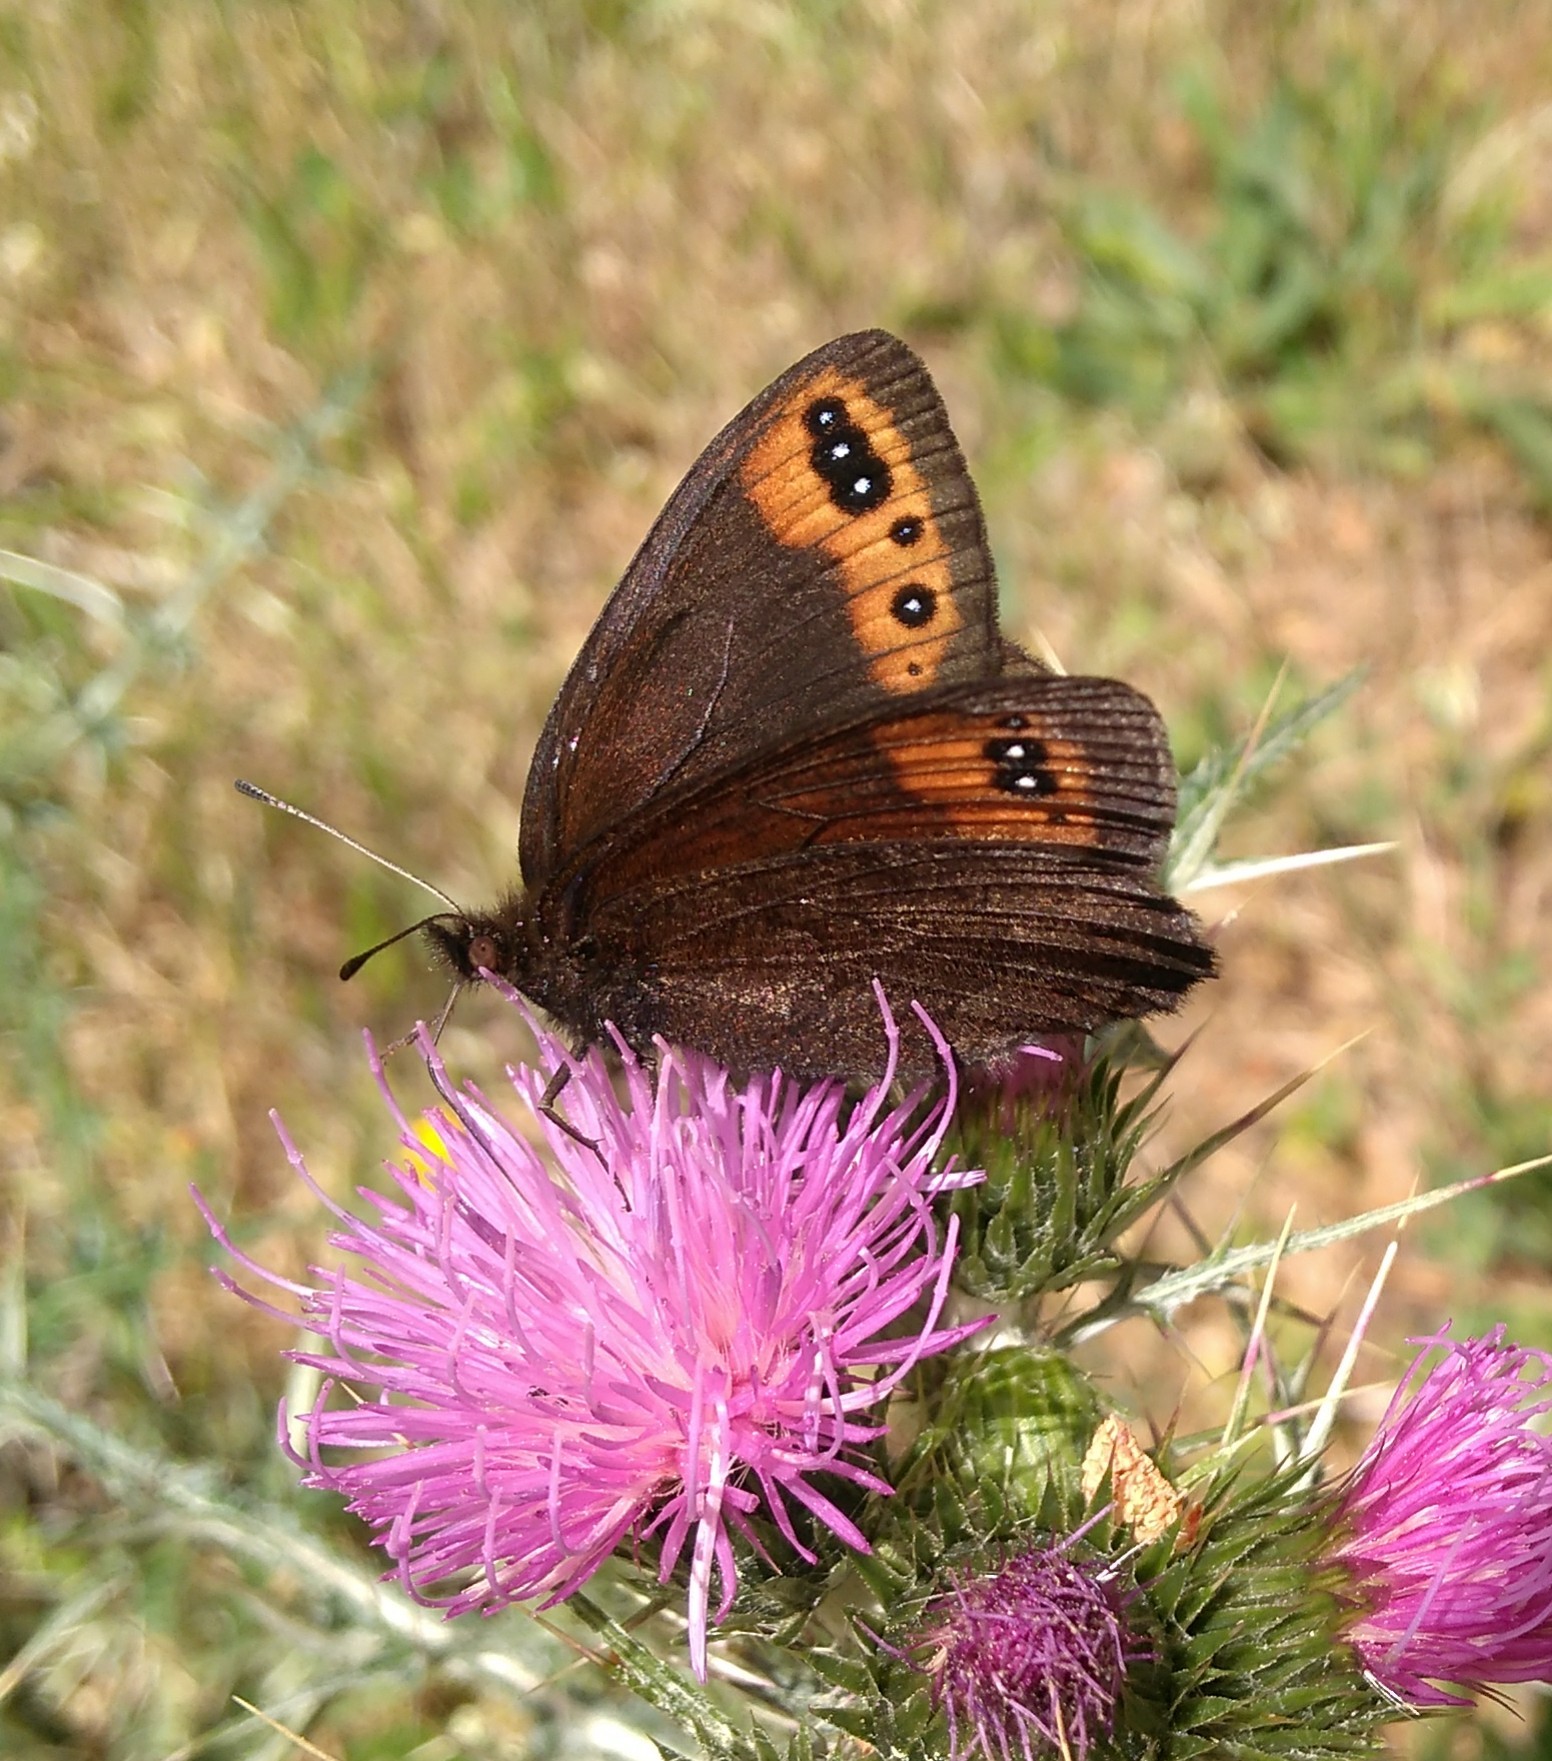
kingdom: Animalia
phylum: Arthropoda
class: Insecta
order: Lepidoptera
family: Nymphalidae
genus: Erebia
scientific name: Erebia triarius
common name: De prunner’s ringlet
